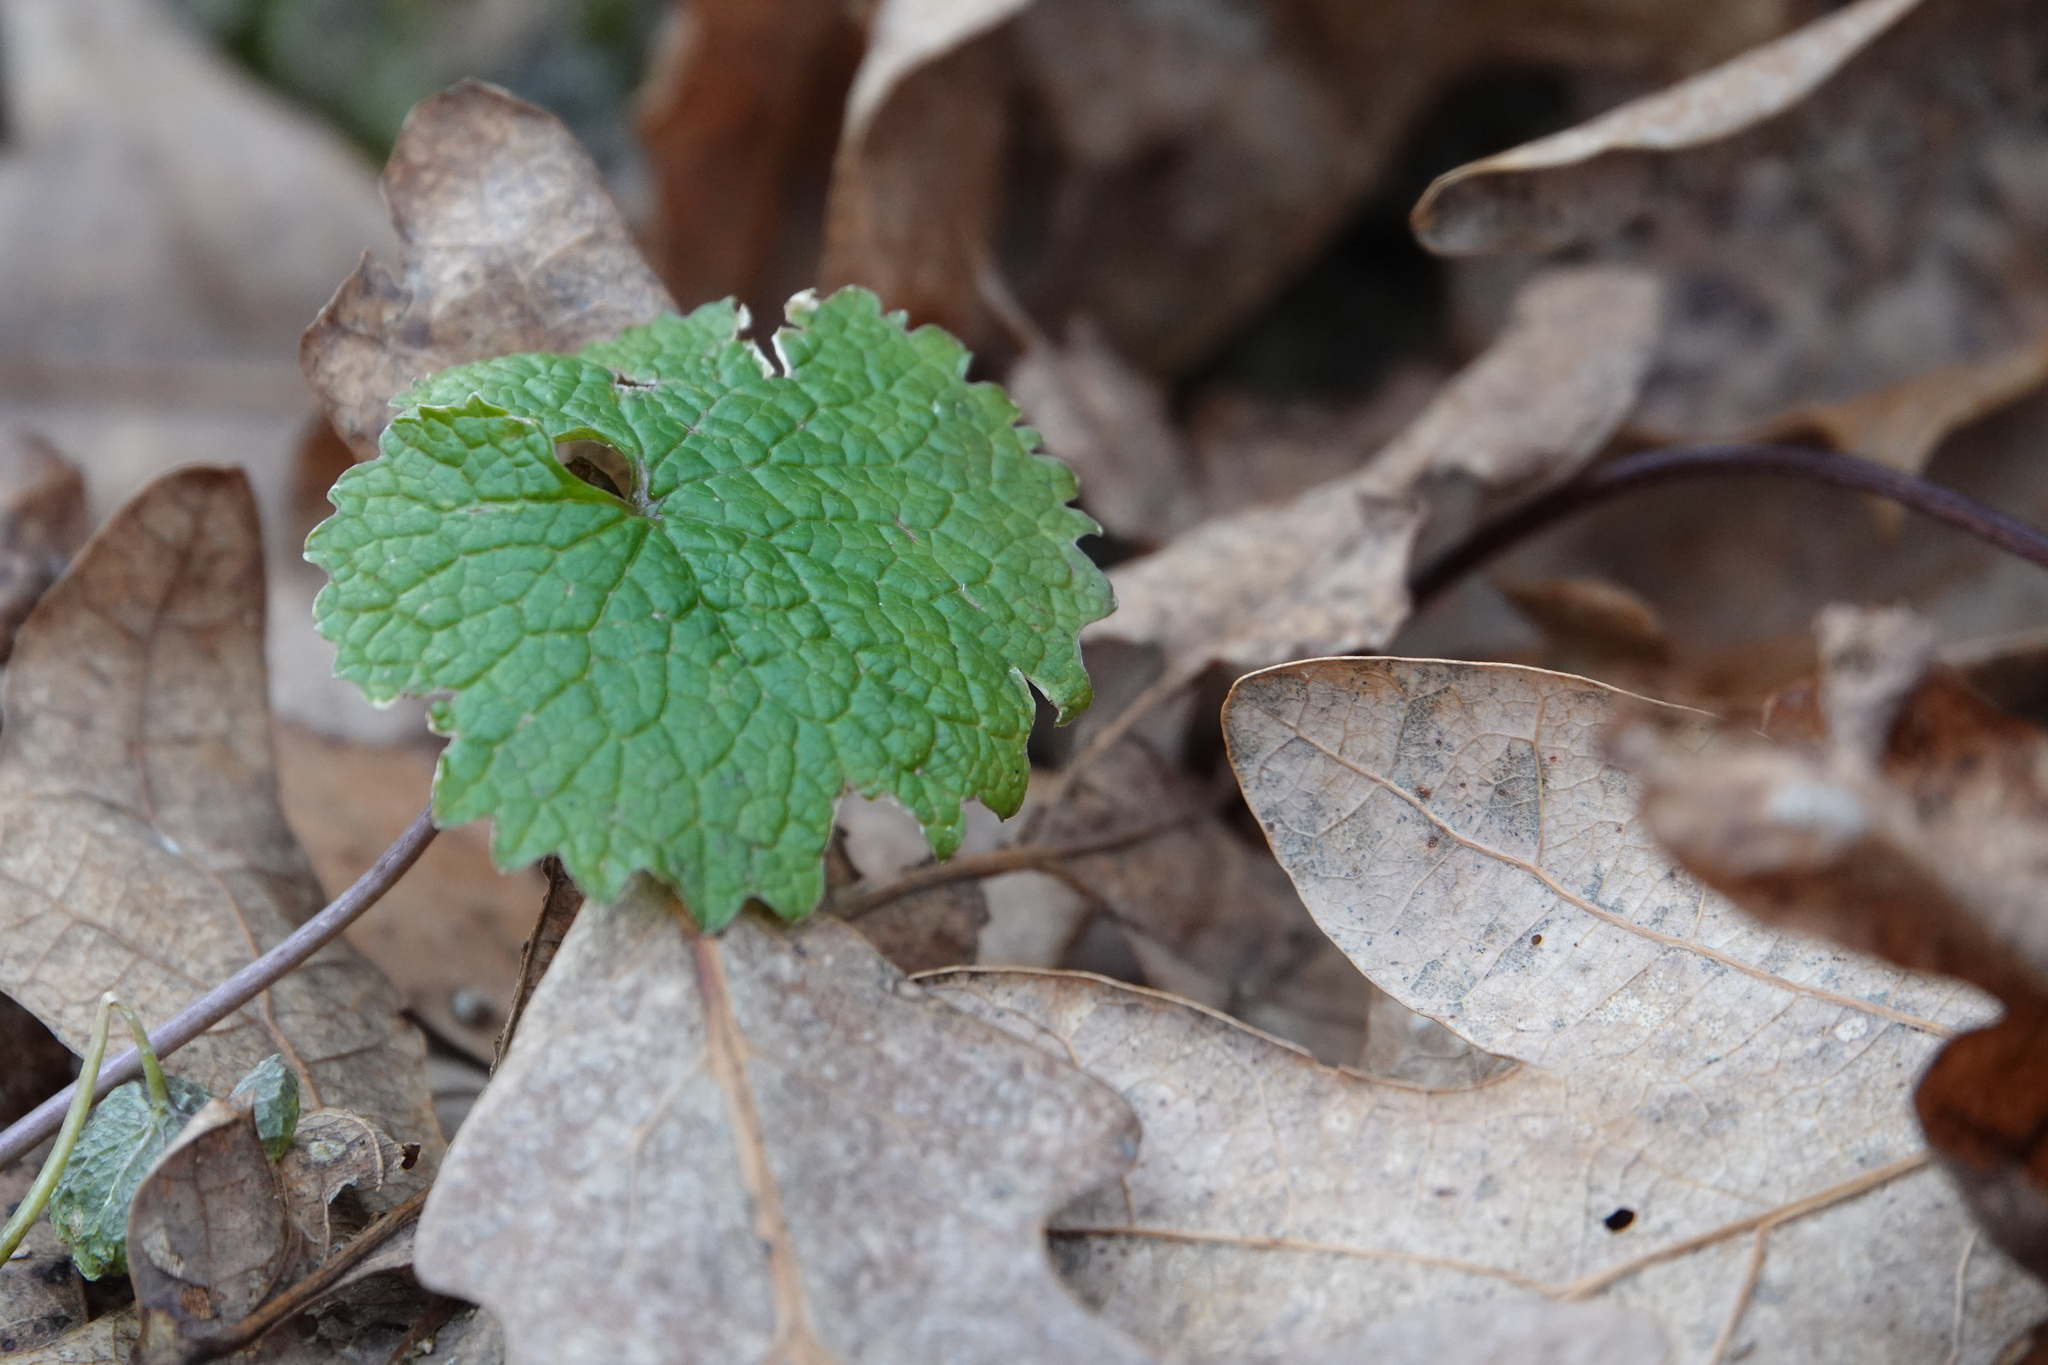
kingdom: Plantae
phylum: Tracheophyta
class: Magnoliopsida
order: Brassicales
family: Brassicaceae
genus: Alliaria
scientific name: Alliaria petiolata
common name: Garlic mustard
